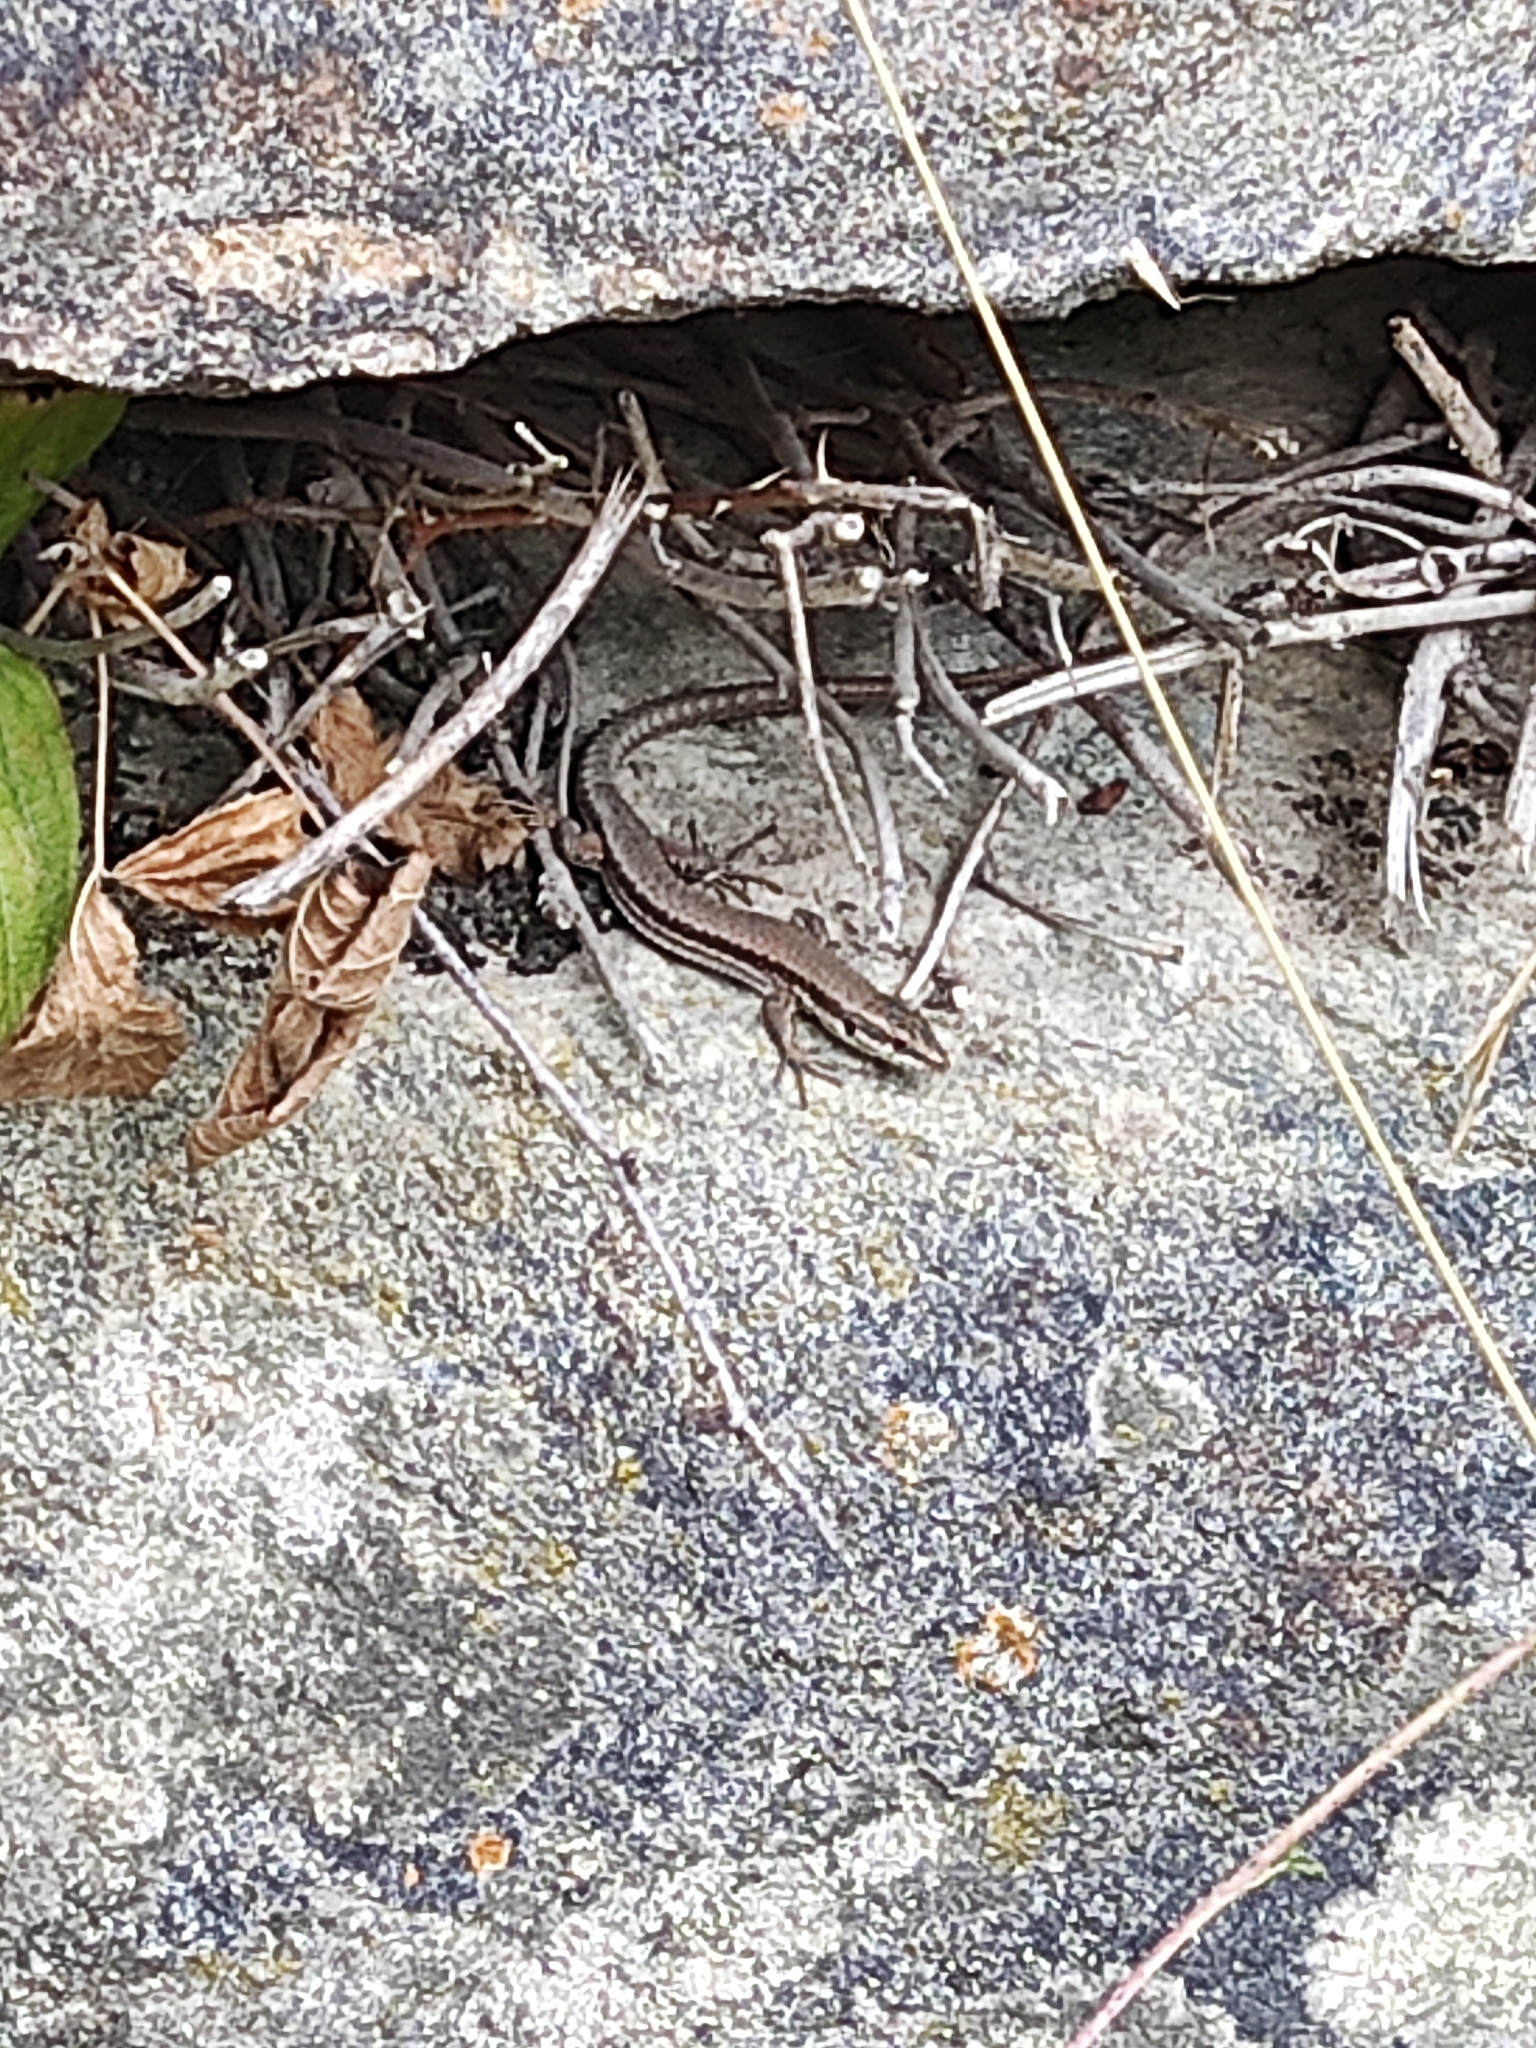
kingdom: Animalia
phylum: Chordata
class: Squamata
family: Lacertidae
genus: Podarcis
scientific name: Podarcis muralis
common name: Common wall lizard
